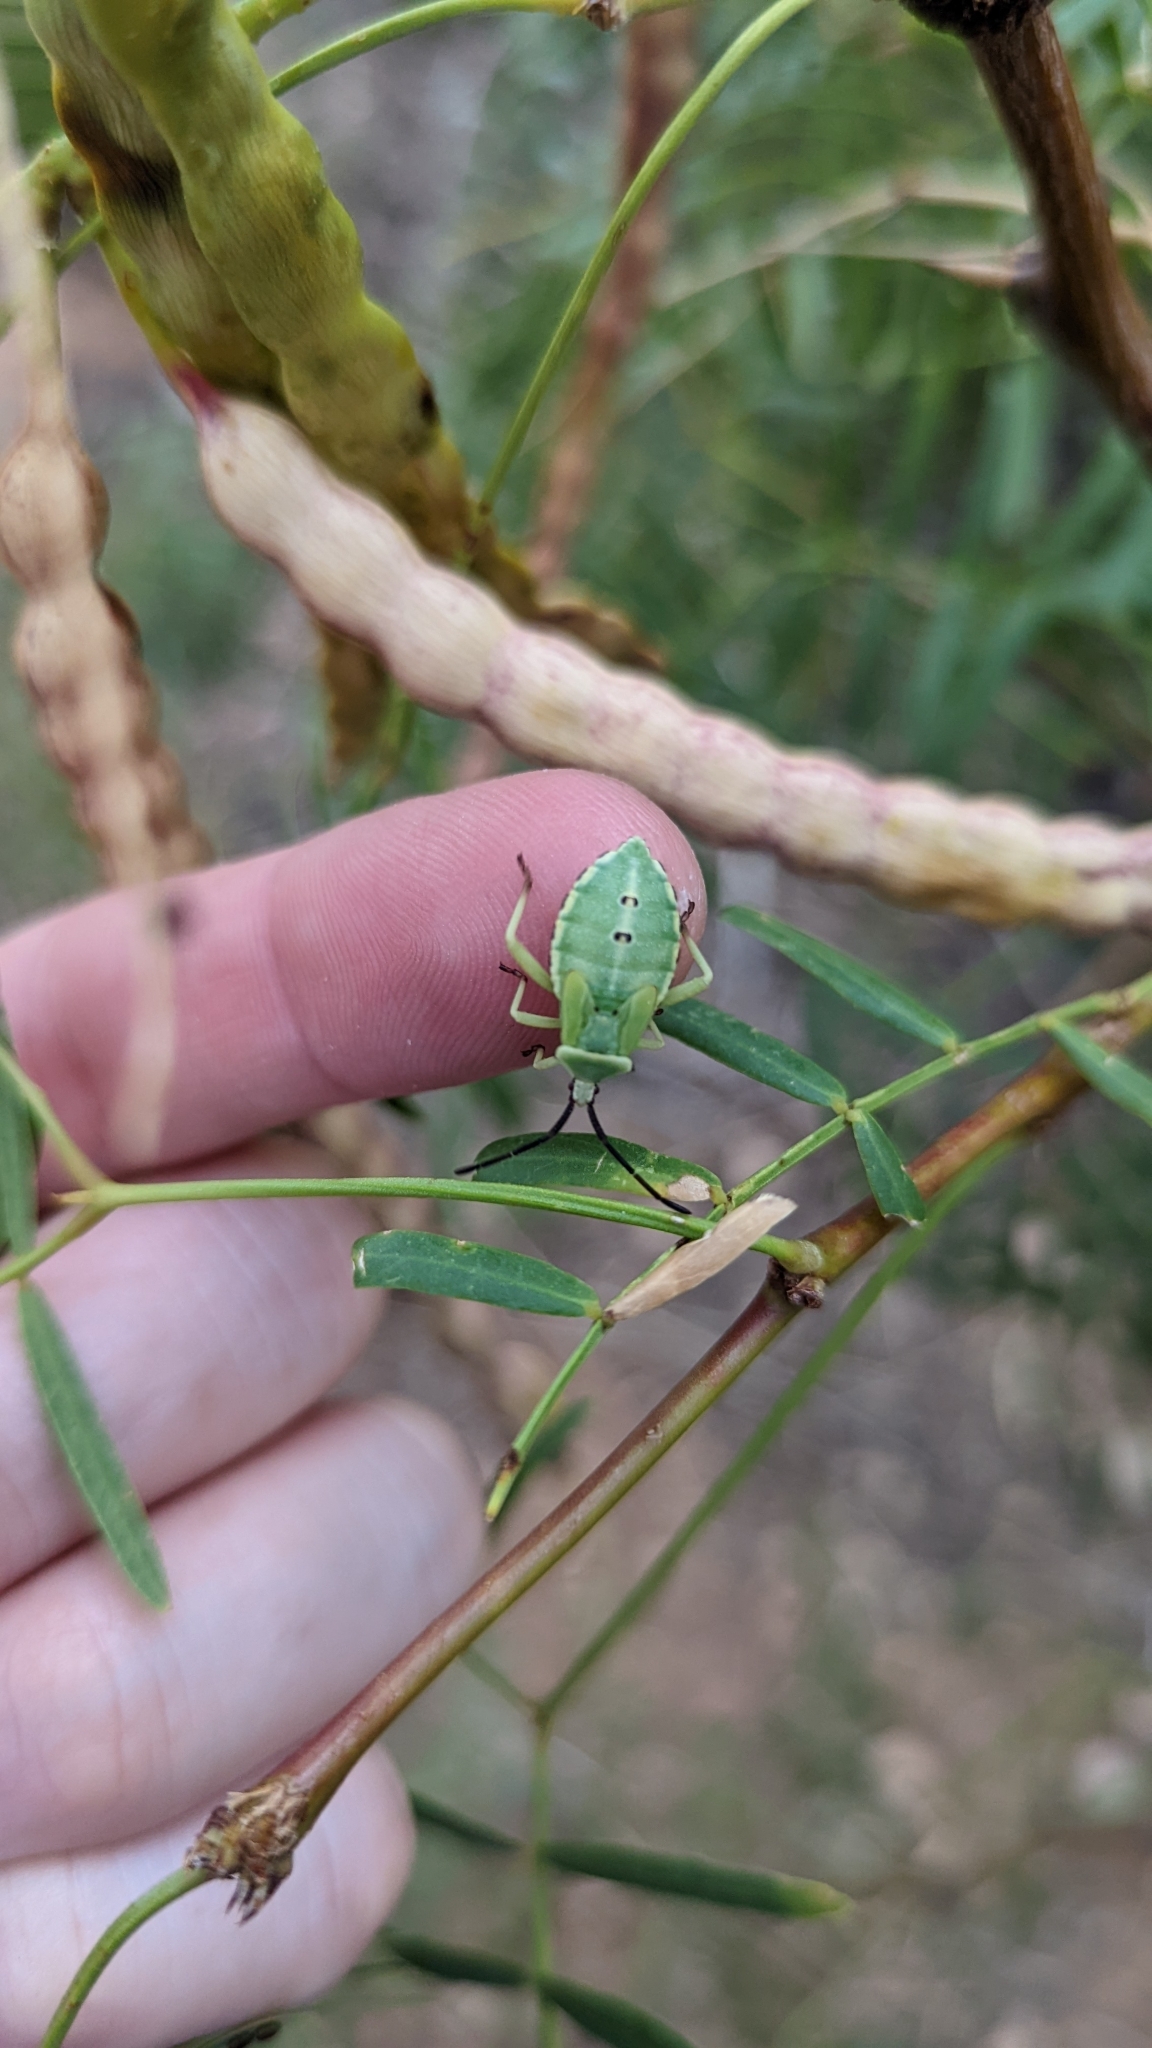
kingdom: Animalia
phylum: Arthropoda
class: Insecta
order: Hemiptera
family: Coreidae
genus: Mozena
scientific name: Mozena obtusa
